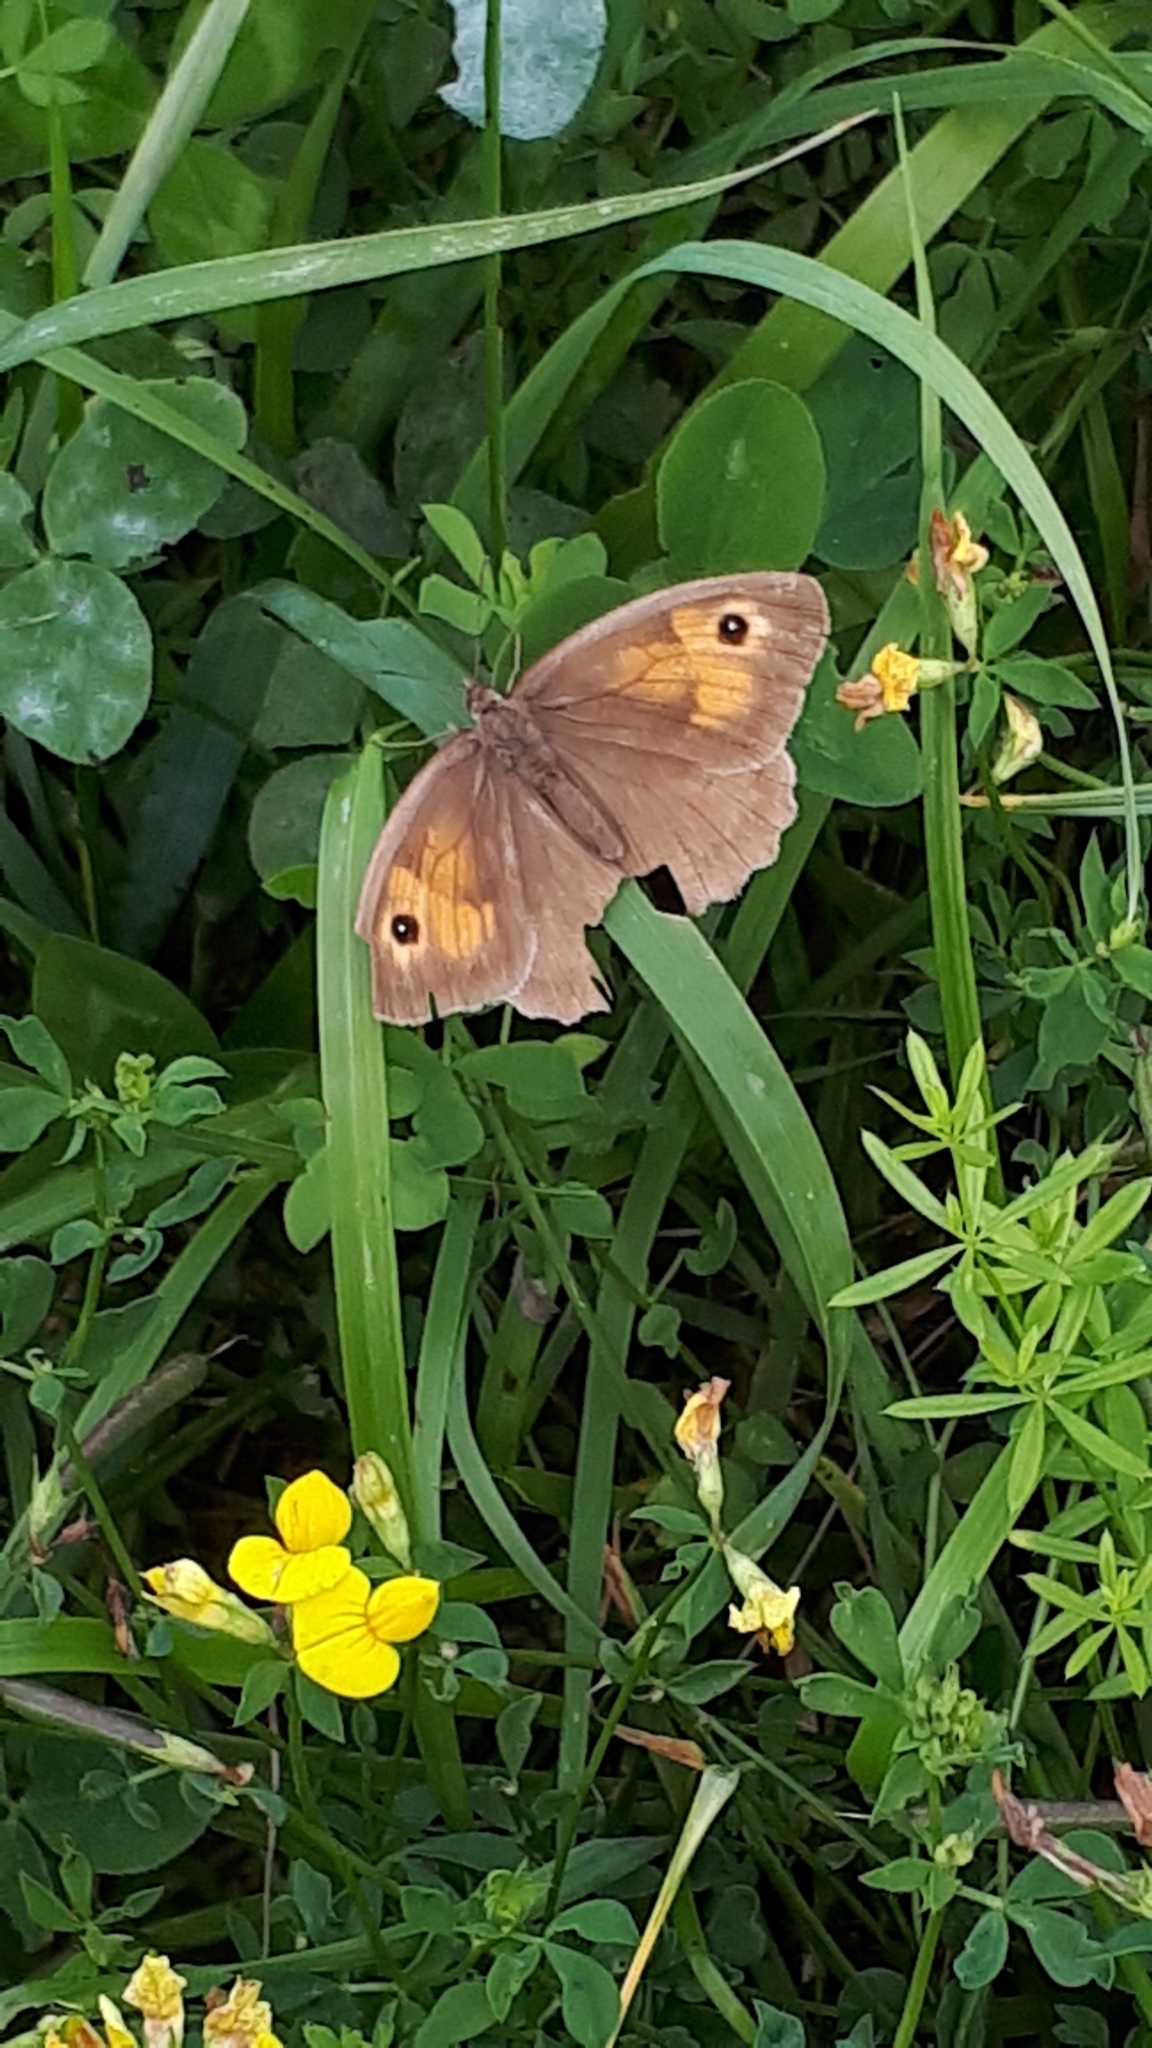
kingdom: Animalia
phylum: Arthropoda
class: Insecta
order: Lepidoptera
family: Nymphalidae
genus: Maniola
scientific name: Maniola jurtina
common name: Meadow brown
